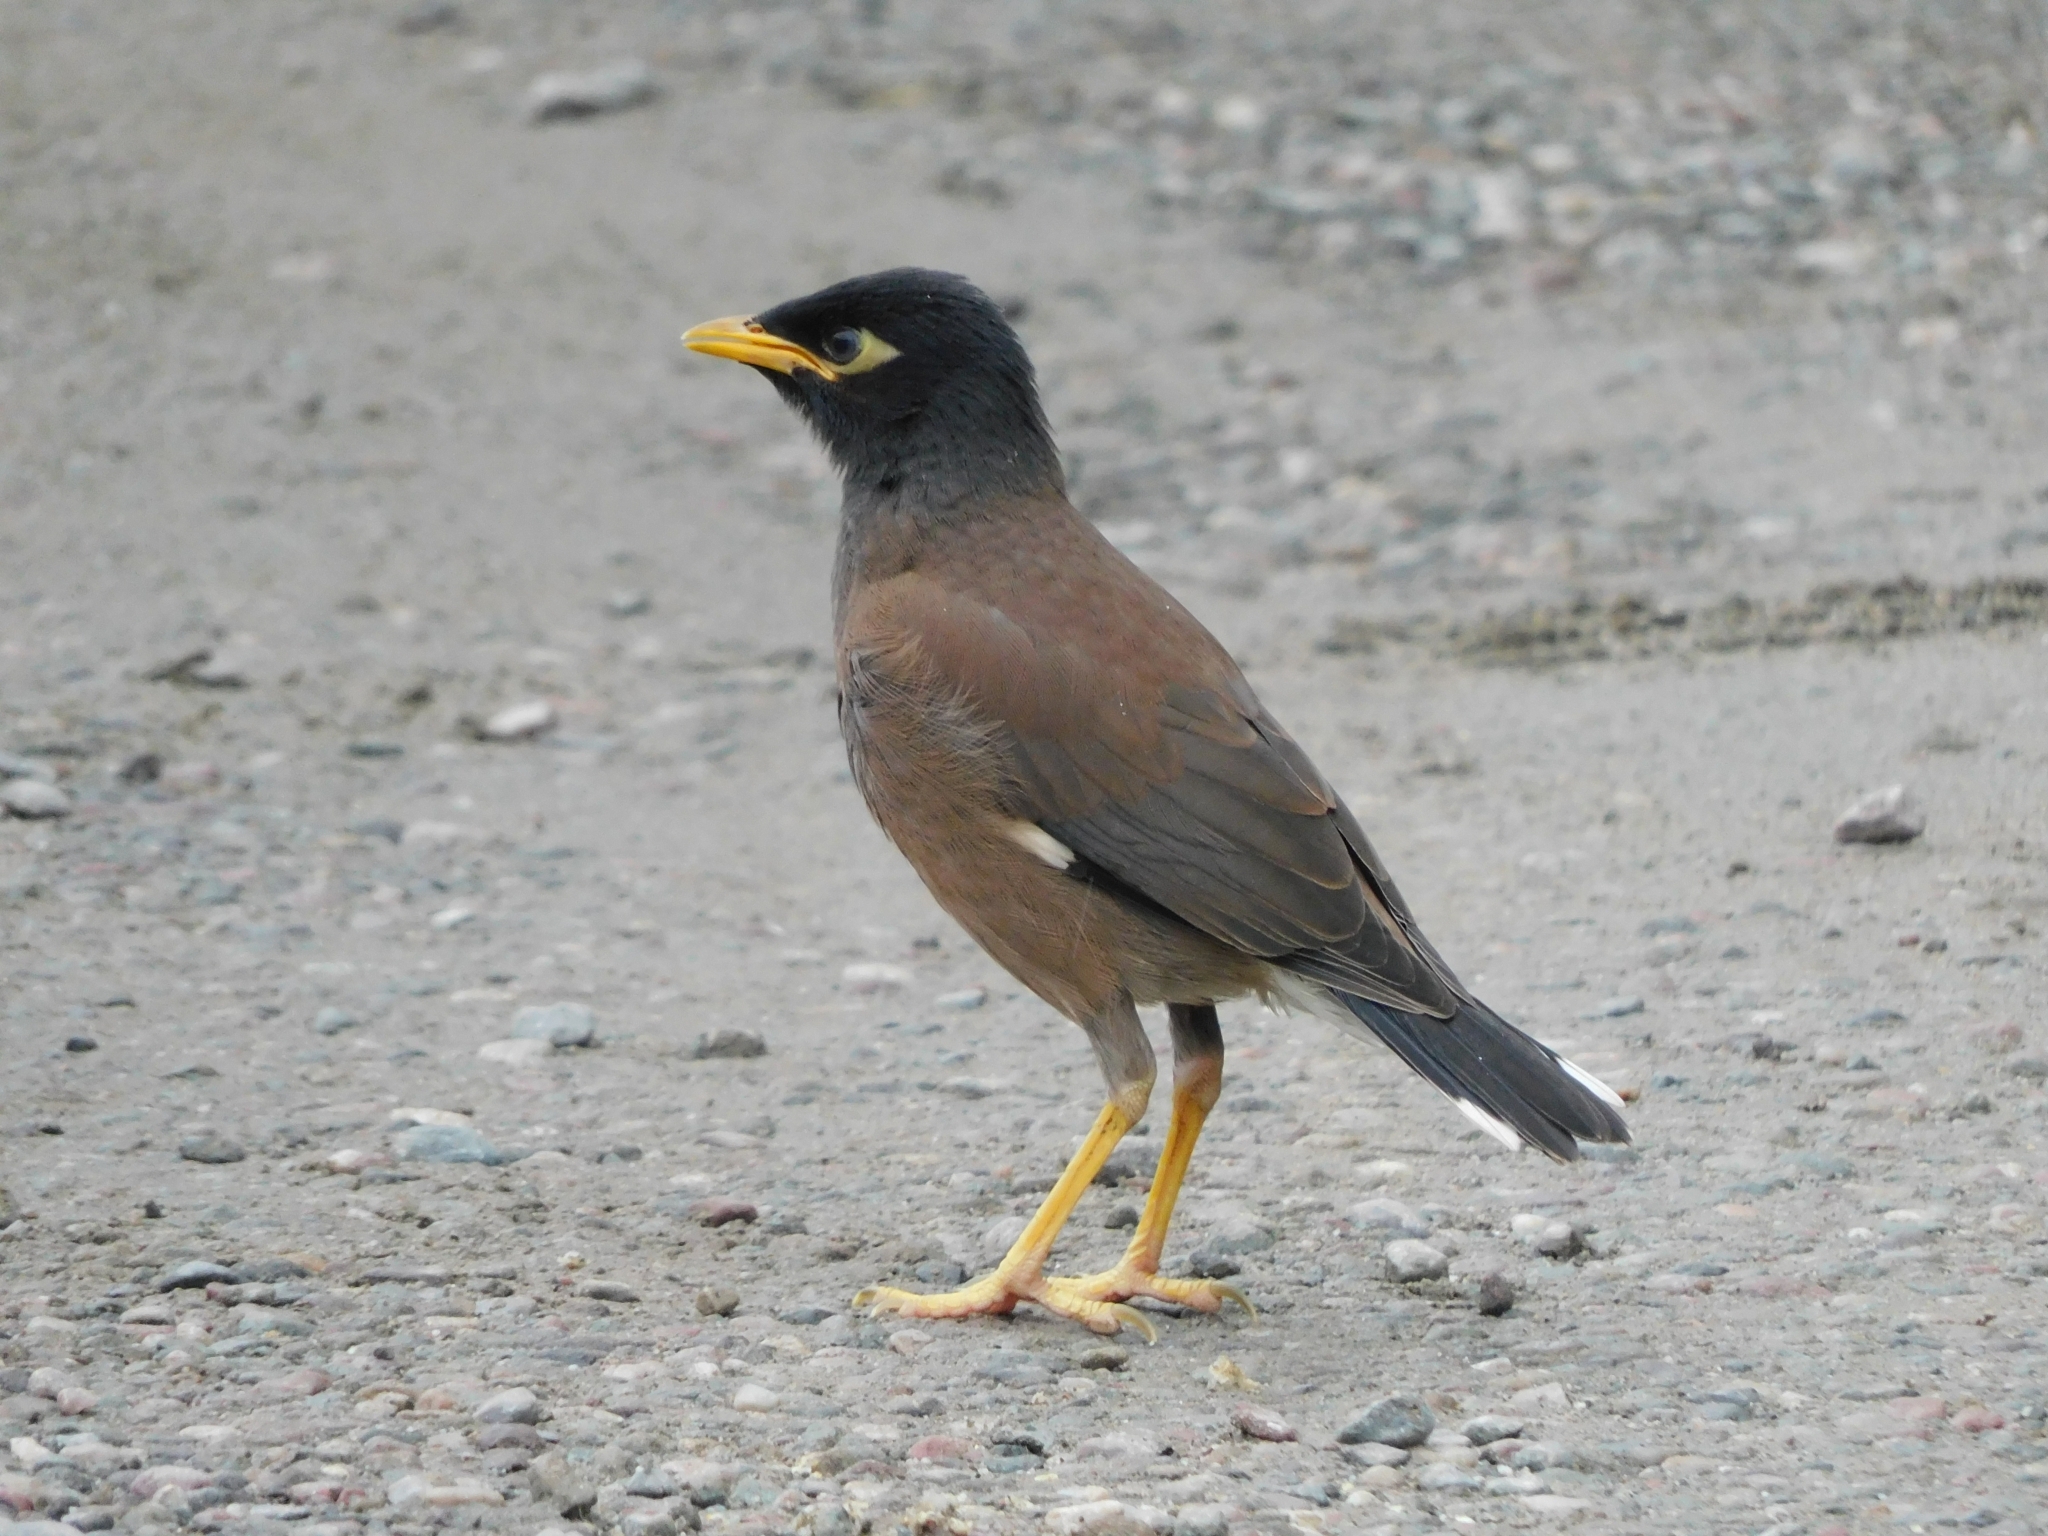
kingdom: Animalia
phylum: Chordata
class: Aves
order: Passeriformes
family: Sturnidae
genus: Acridotheres
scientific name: Acridotheres tristis
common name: Common myna
